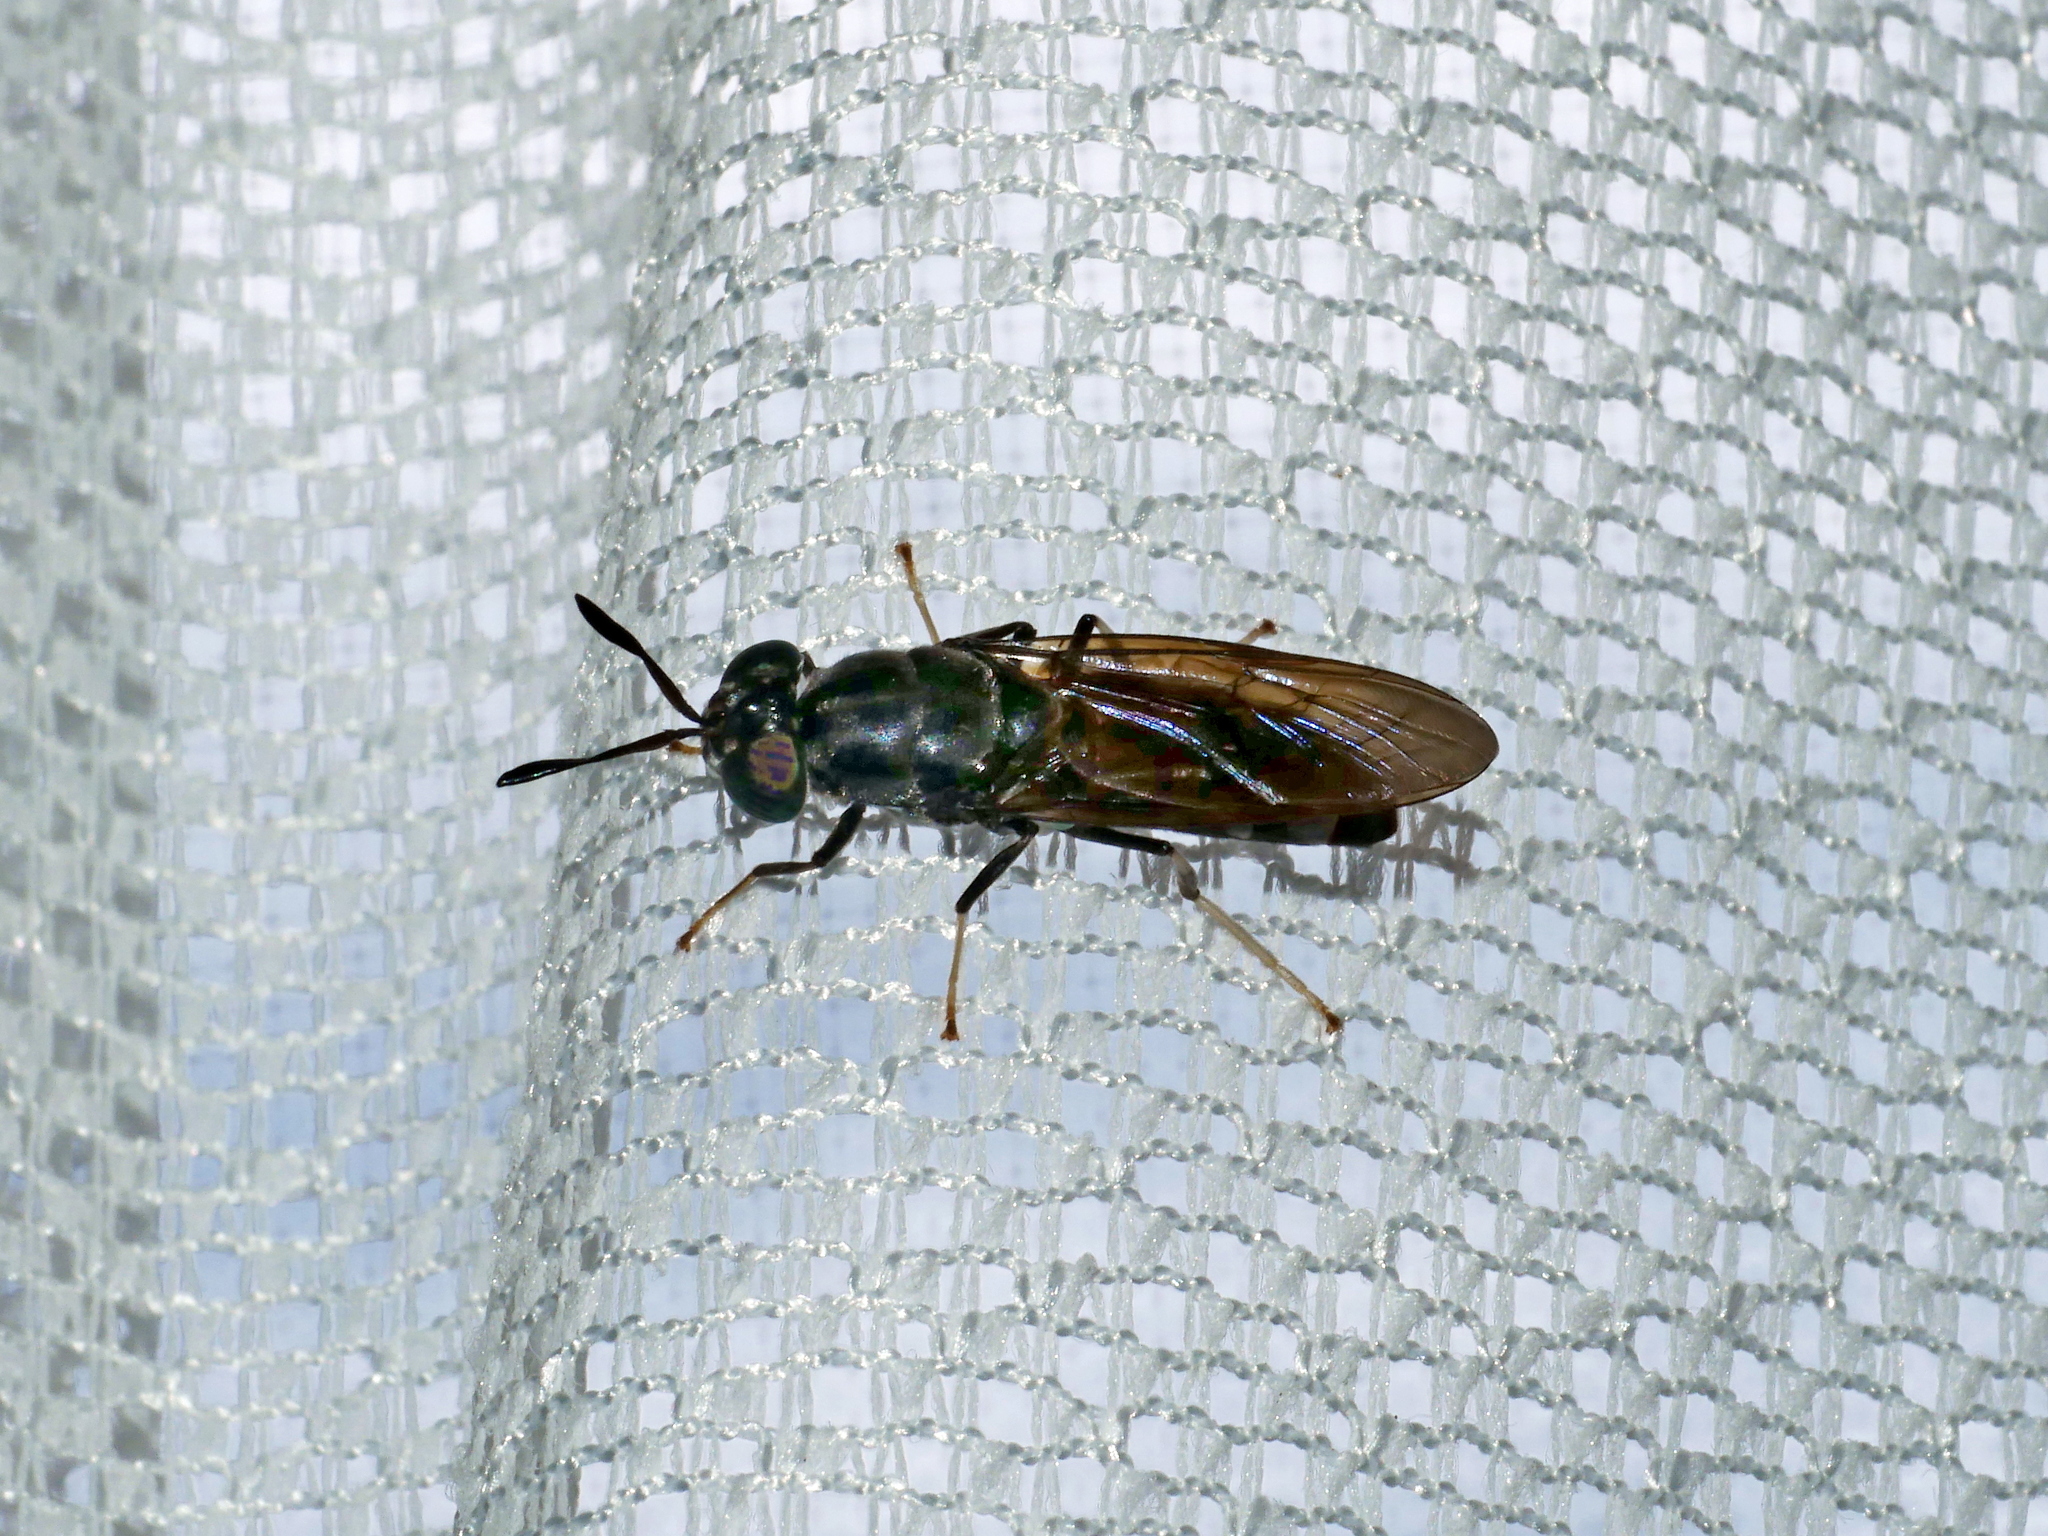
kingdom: Animalia
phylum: Arthropoda
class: Insecta
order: Diptera
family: Stratiomyidae
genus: Hermetia
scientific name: Hermetia illucens
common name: Black soldier fly
